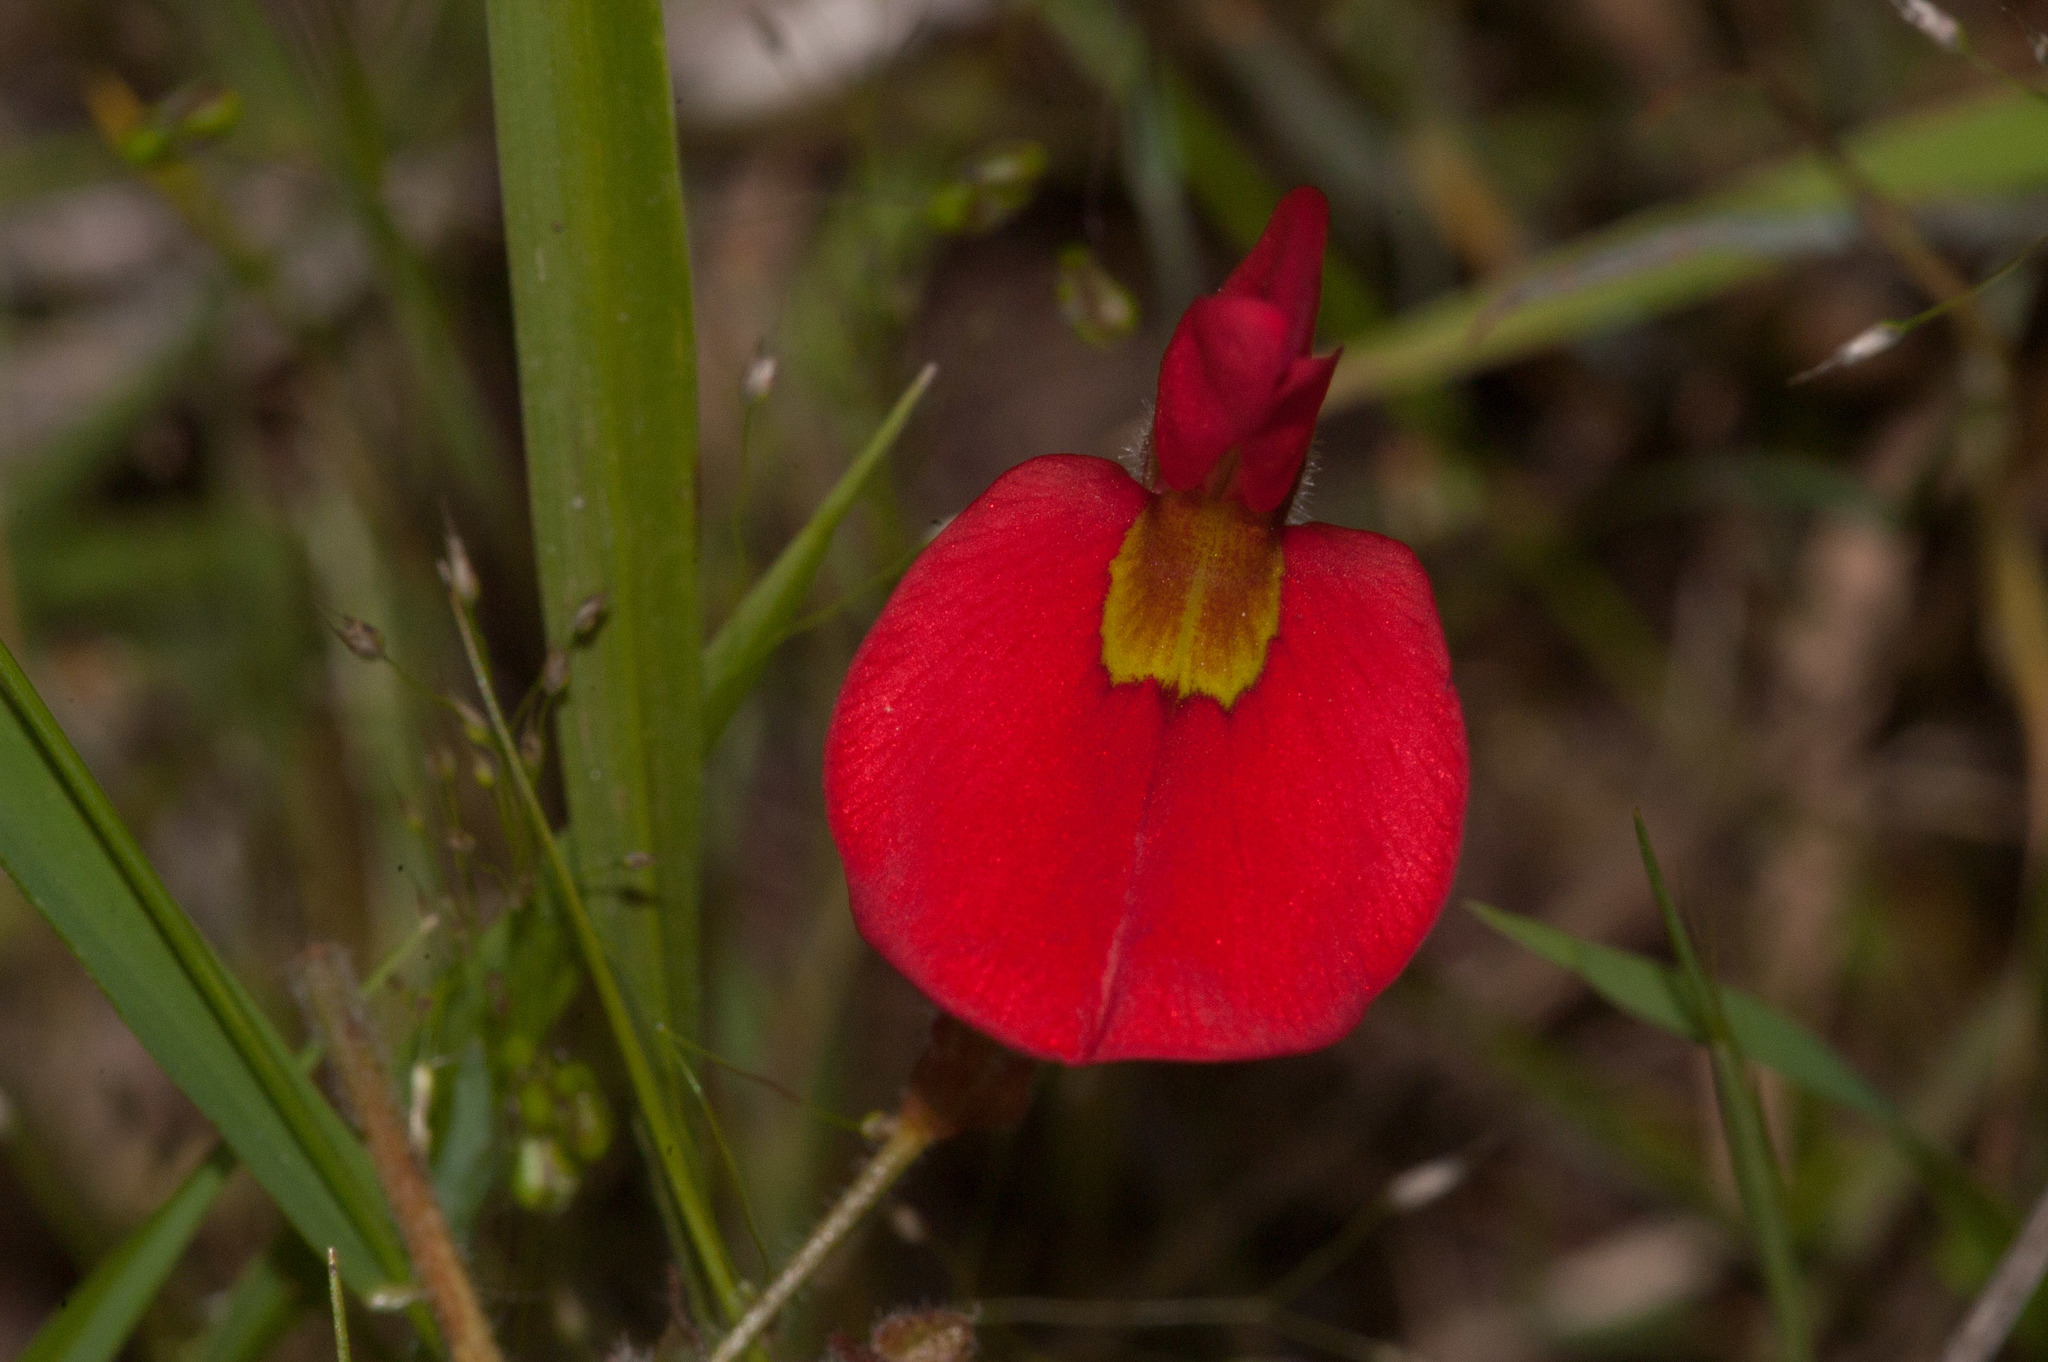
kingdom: Plantae
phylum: Tracheophyta
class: Magnoliopsida
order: Fabales
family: Fabaceae
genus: Kennedia
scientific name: Kennedia prostrata
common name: Running-postman
